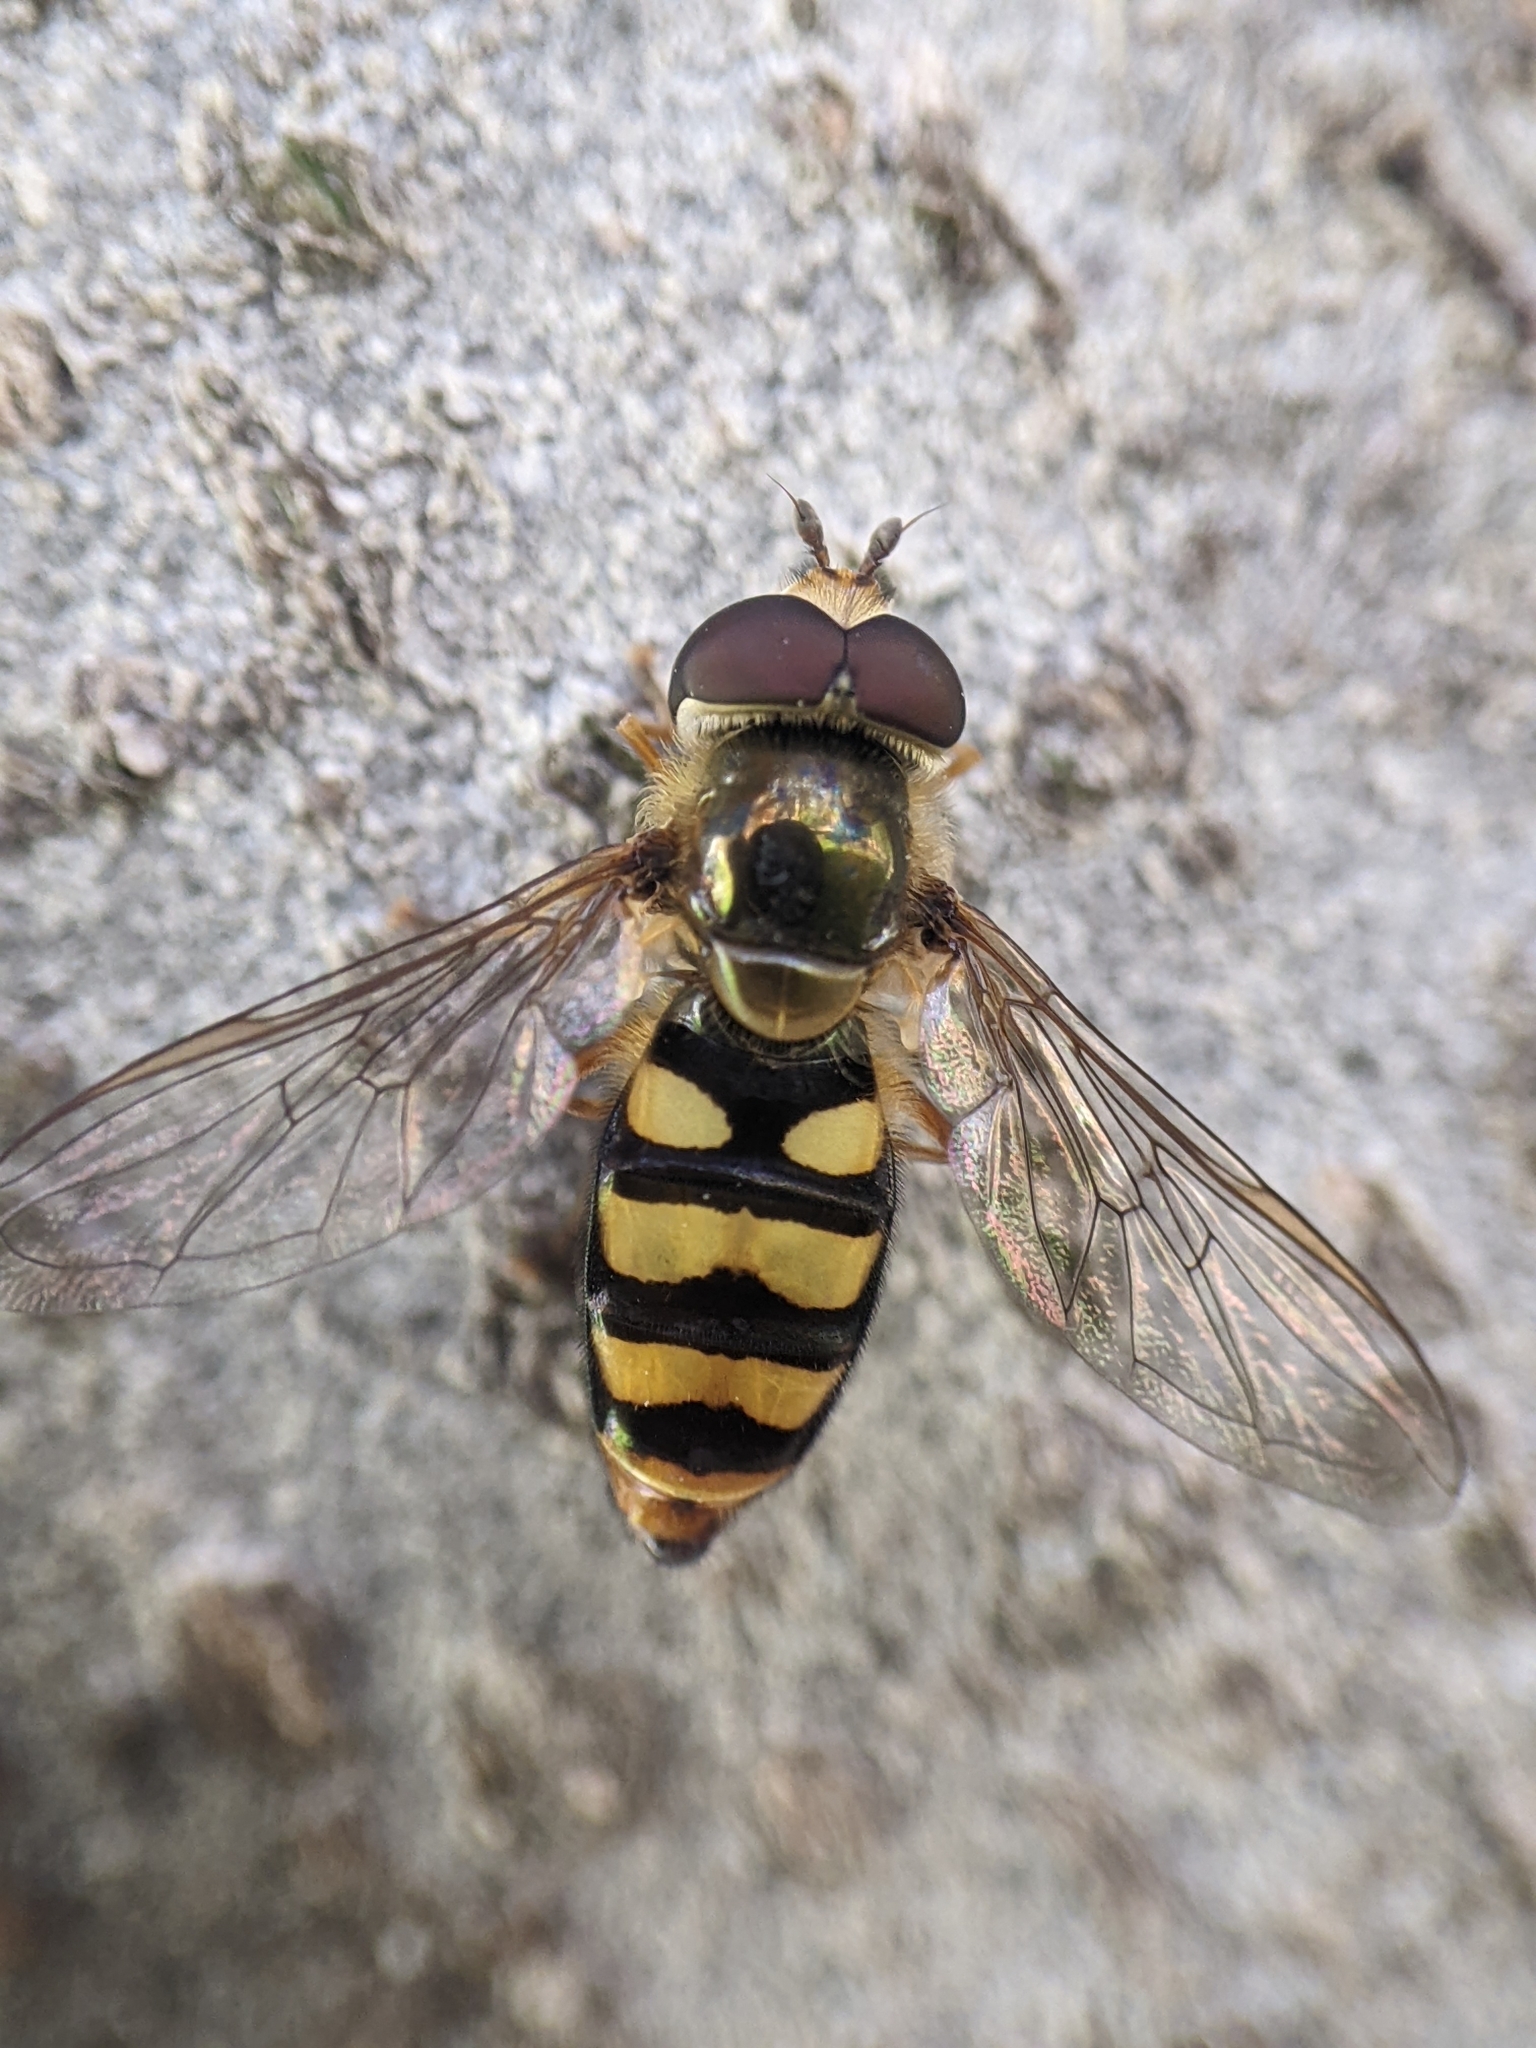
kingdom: Animalia
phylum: Arthropoda
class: Insecta
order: Diptera
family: Syrphidae
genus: Eupeodes
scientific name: Eupeodes fumipennis
